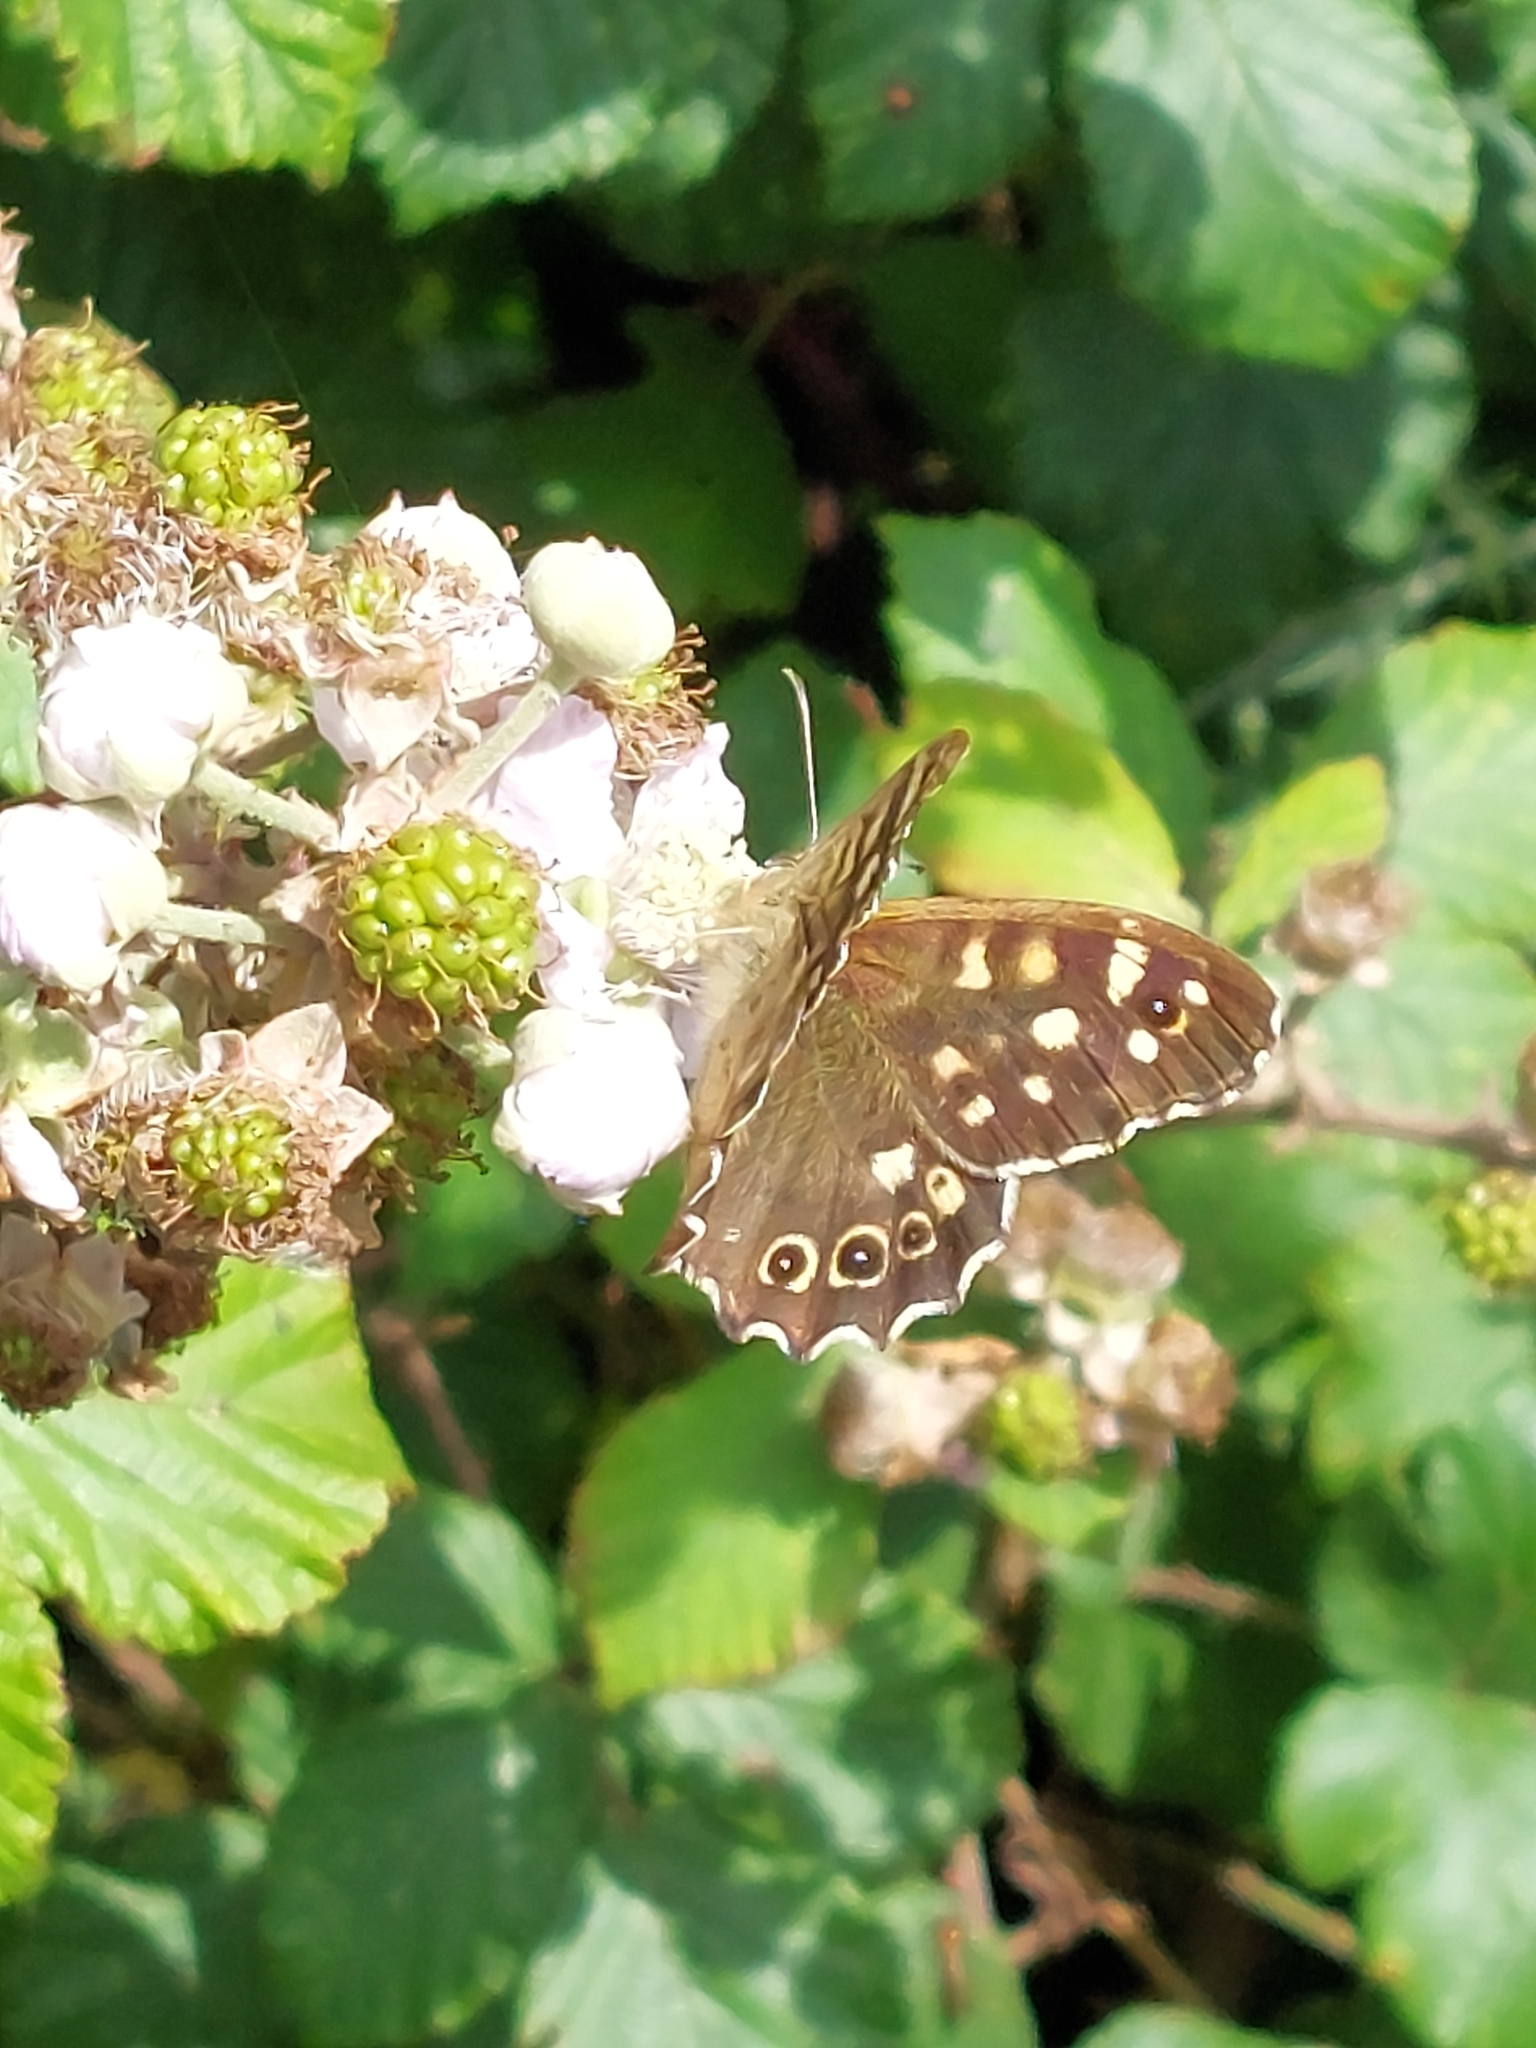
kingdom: Animalia
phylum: Arthropoda
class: Insecta
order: Lepidoptera
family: Nymphalidae
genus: Pararge
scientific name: Pararge aegeria
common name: Speckled wood
